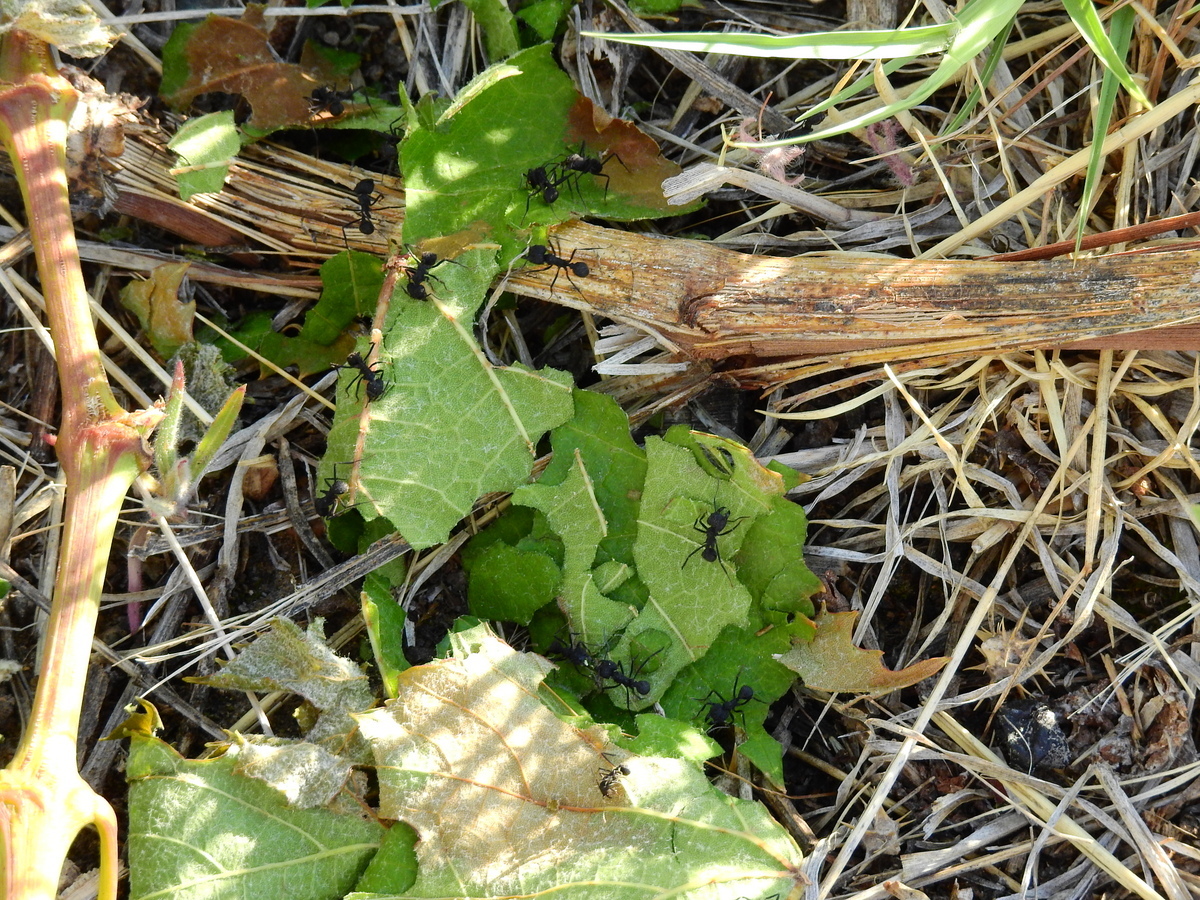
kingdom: Animalia
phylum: Arthropoda
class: Insecta
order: Hymenoptera
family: Formicidae
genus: Acromyrmex
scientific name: Acromyrmex lobicornis
